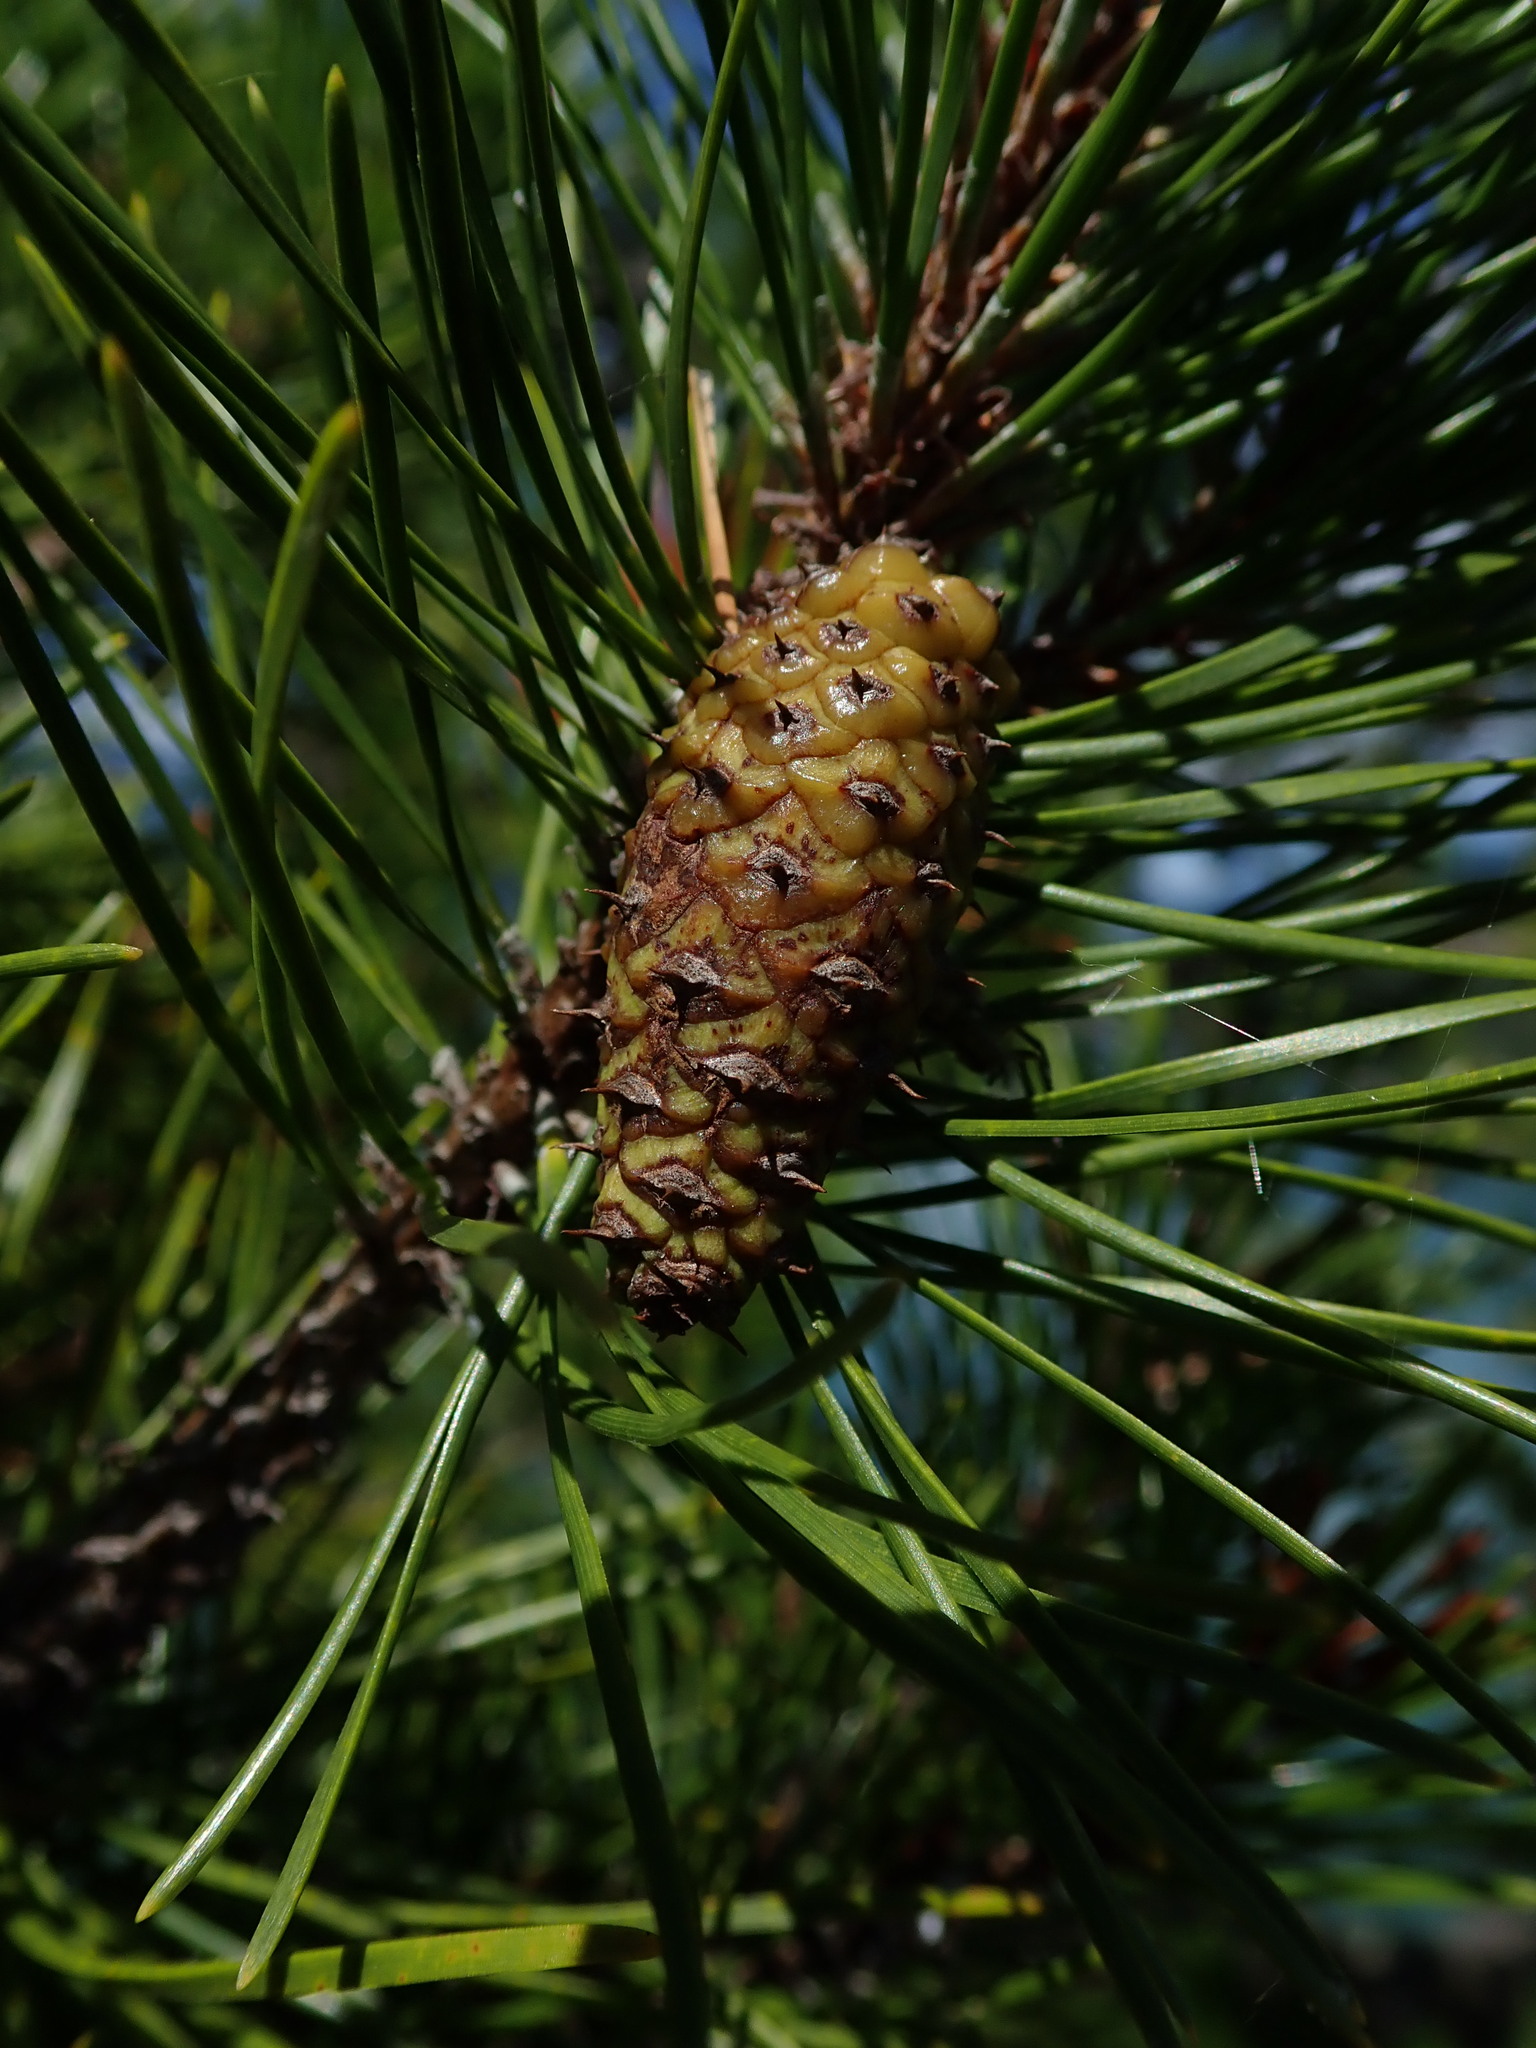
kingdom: Plantae
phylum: Tracheophyta
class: Pinopsida
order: Pinales
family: Pinaceae
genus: Pinus
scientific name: Pinus contorta
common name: Lodgepole pine
